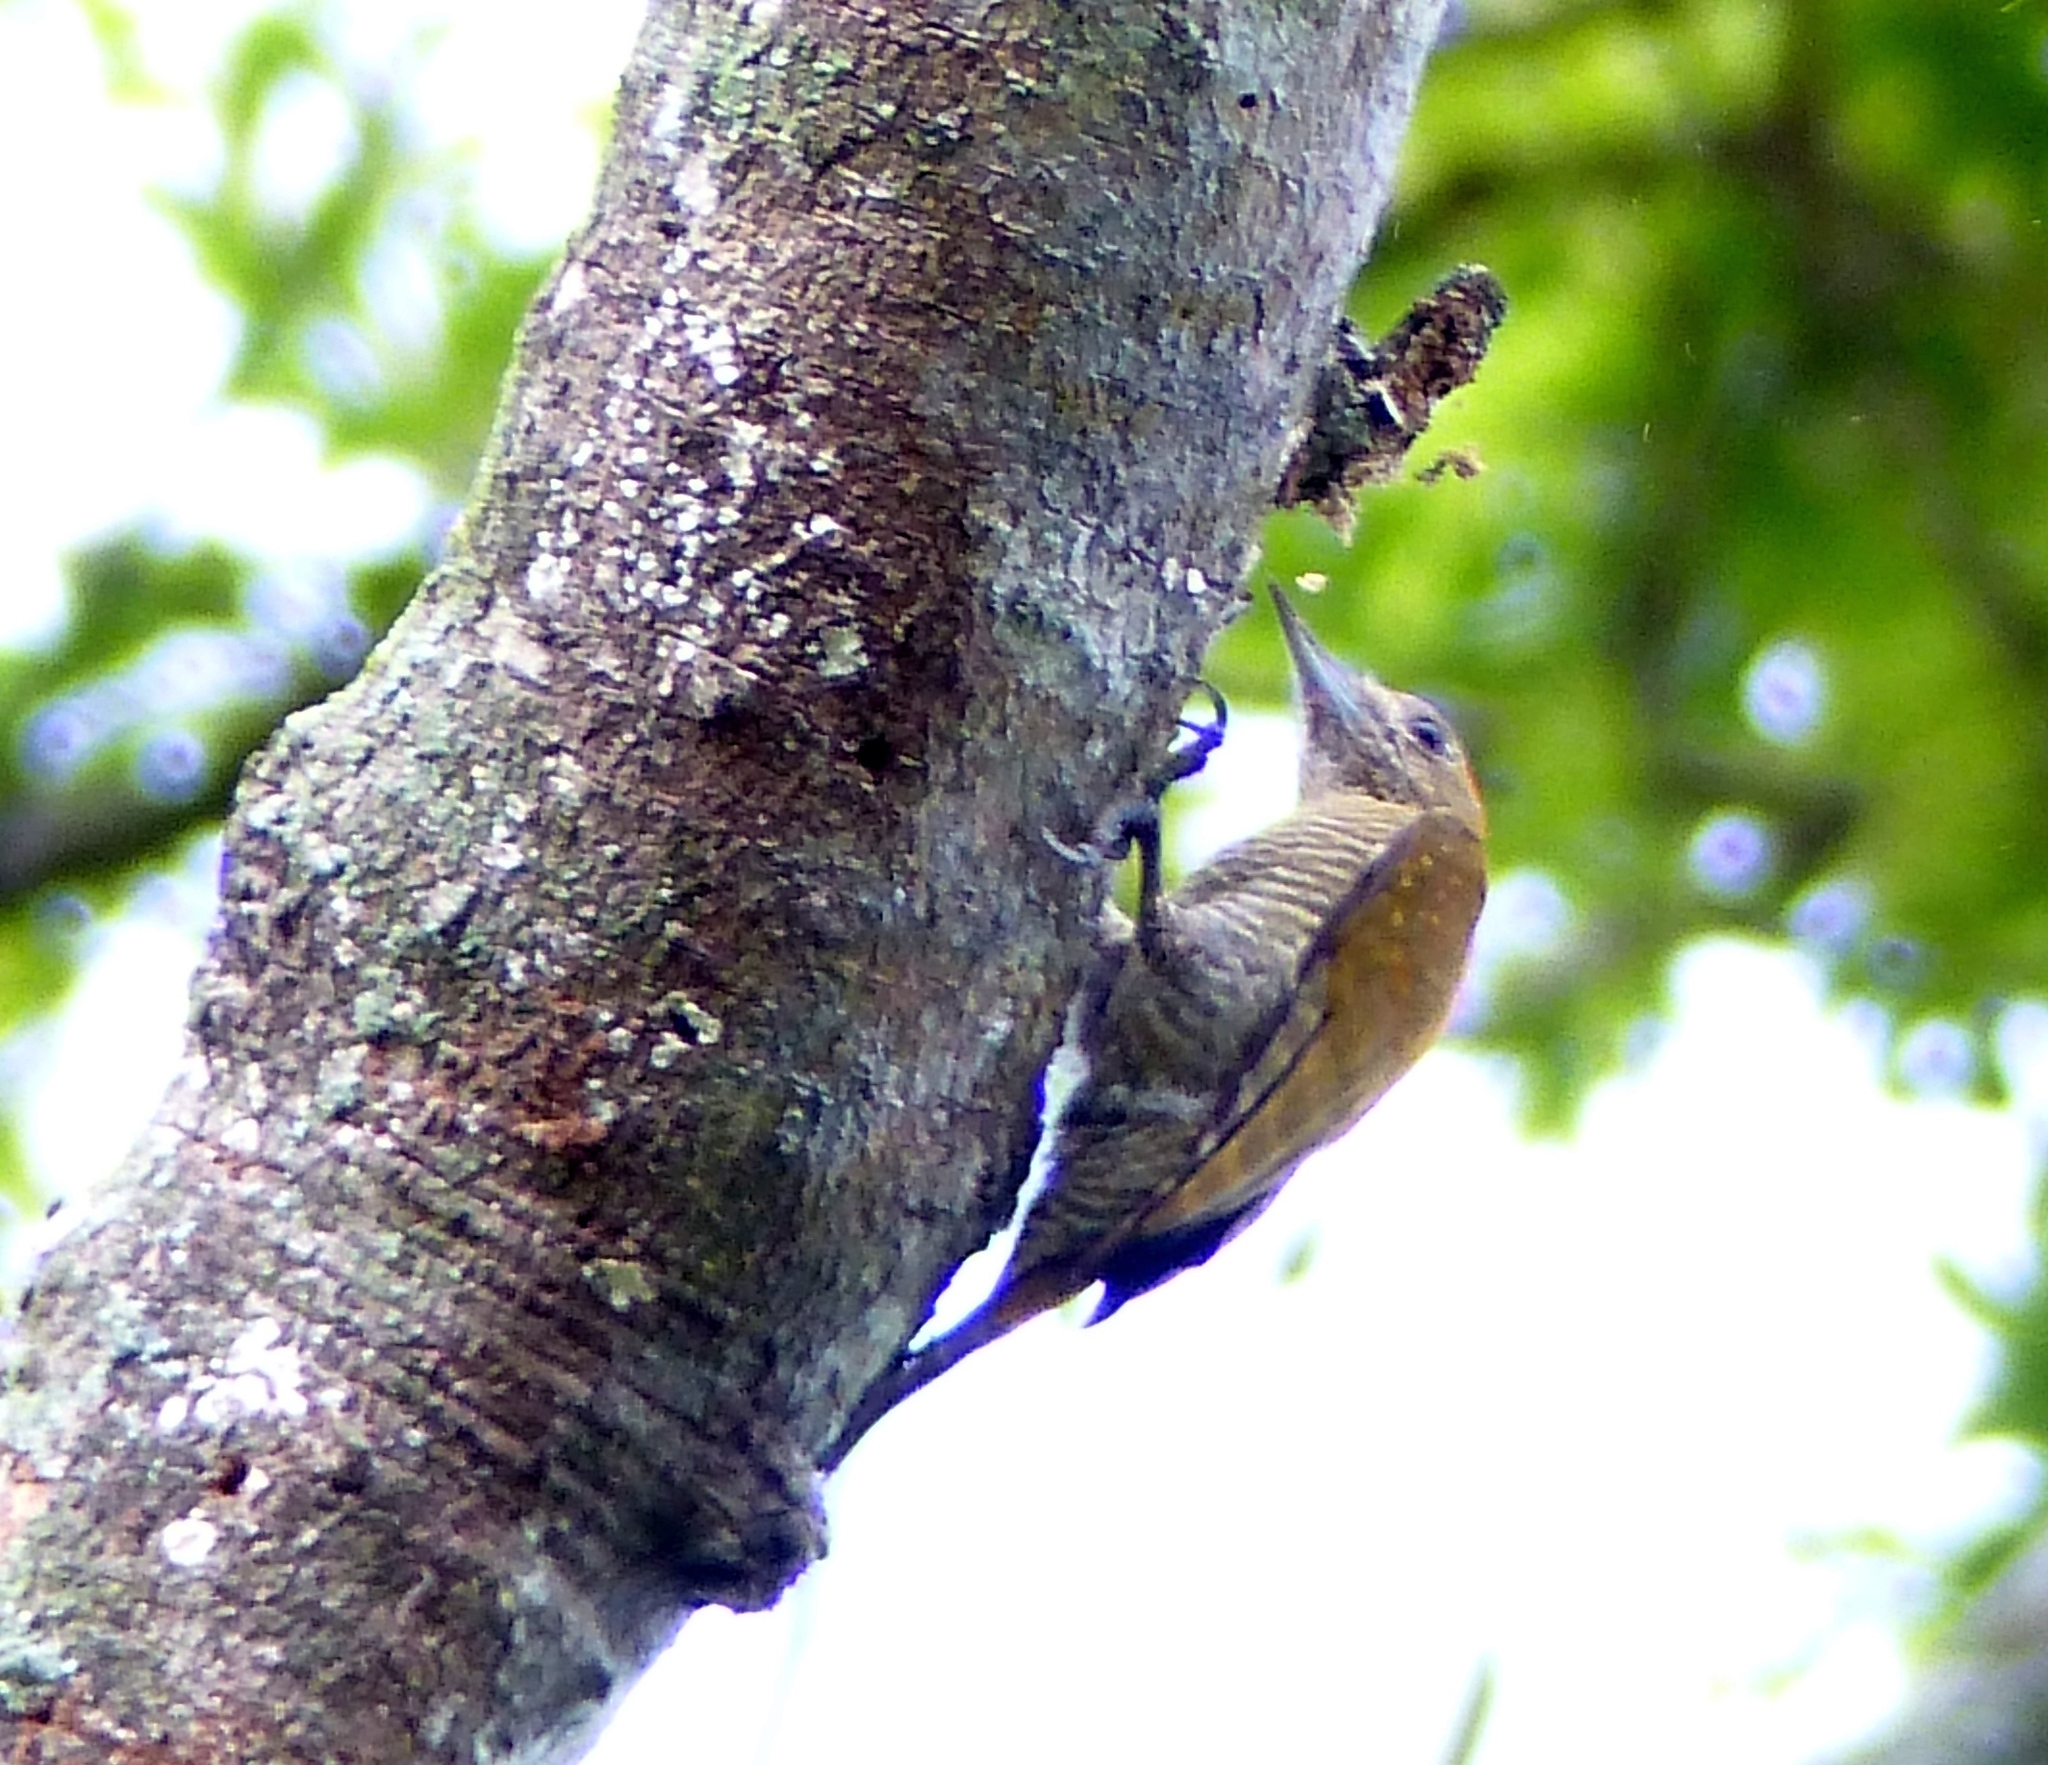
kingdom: Animalia
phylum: Chordata
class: Aves
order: Piciformes
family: Picidae
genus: Veniliornis
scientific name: Veniliornis passerinus
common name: Little woodpecker
